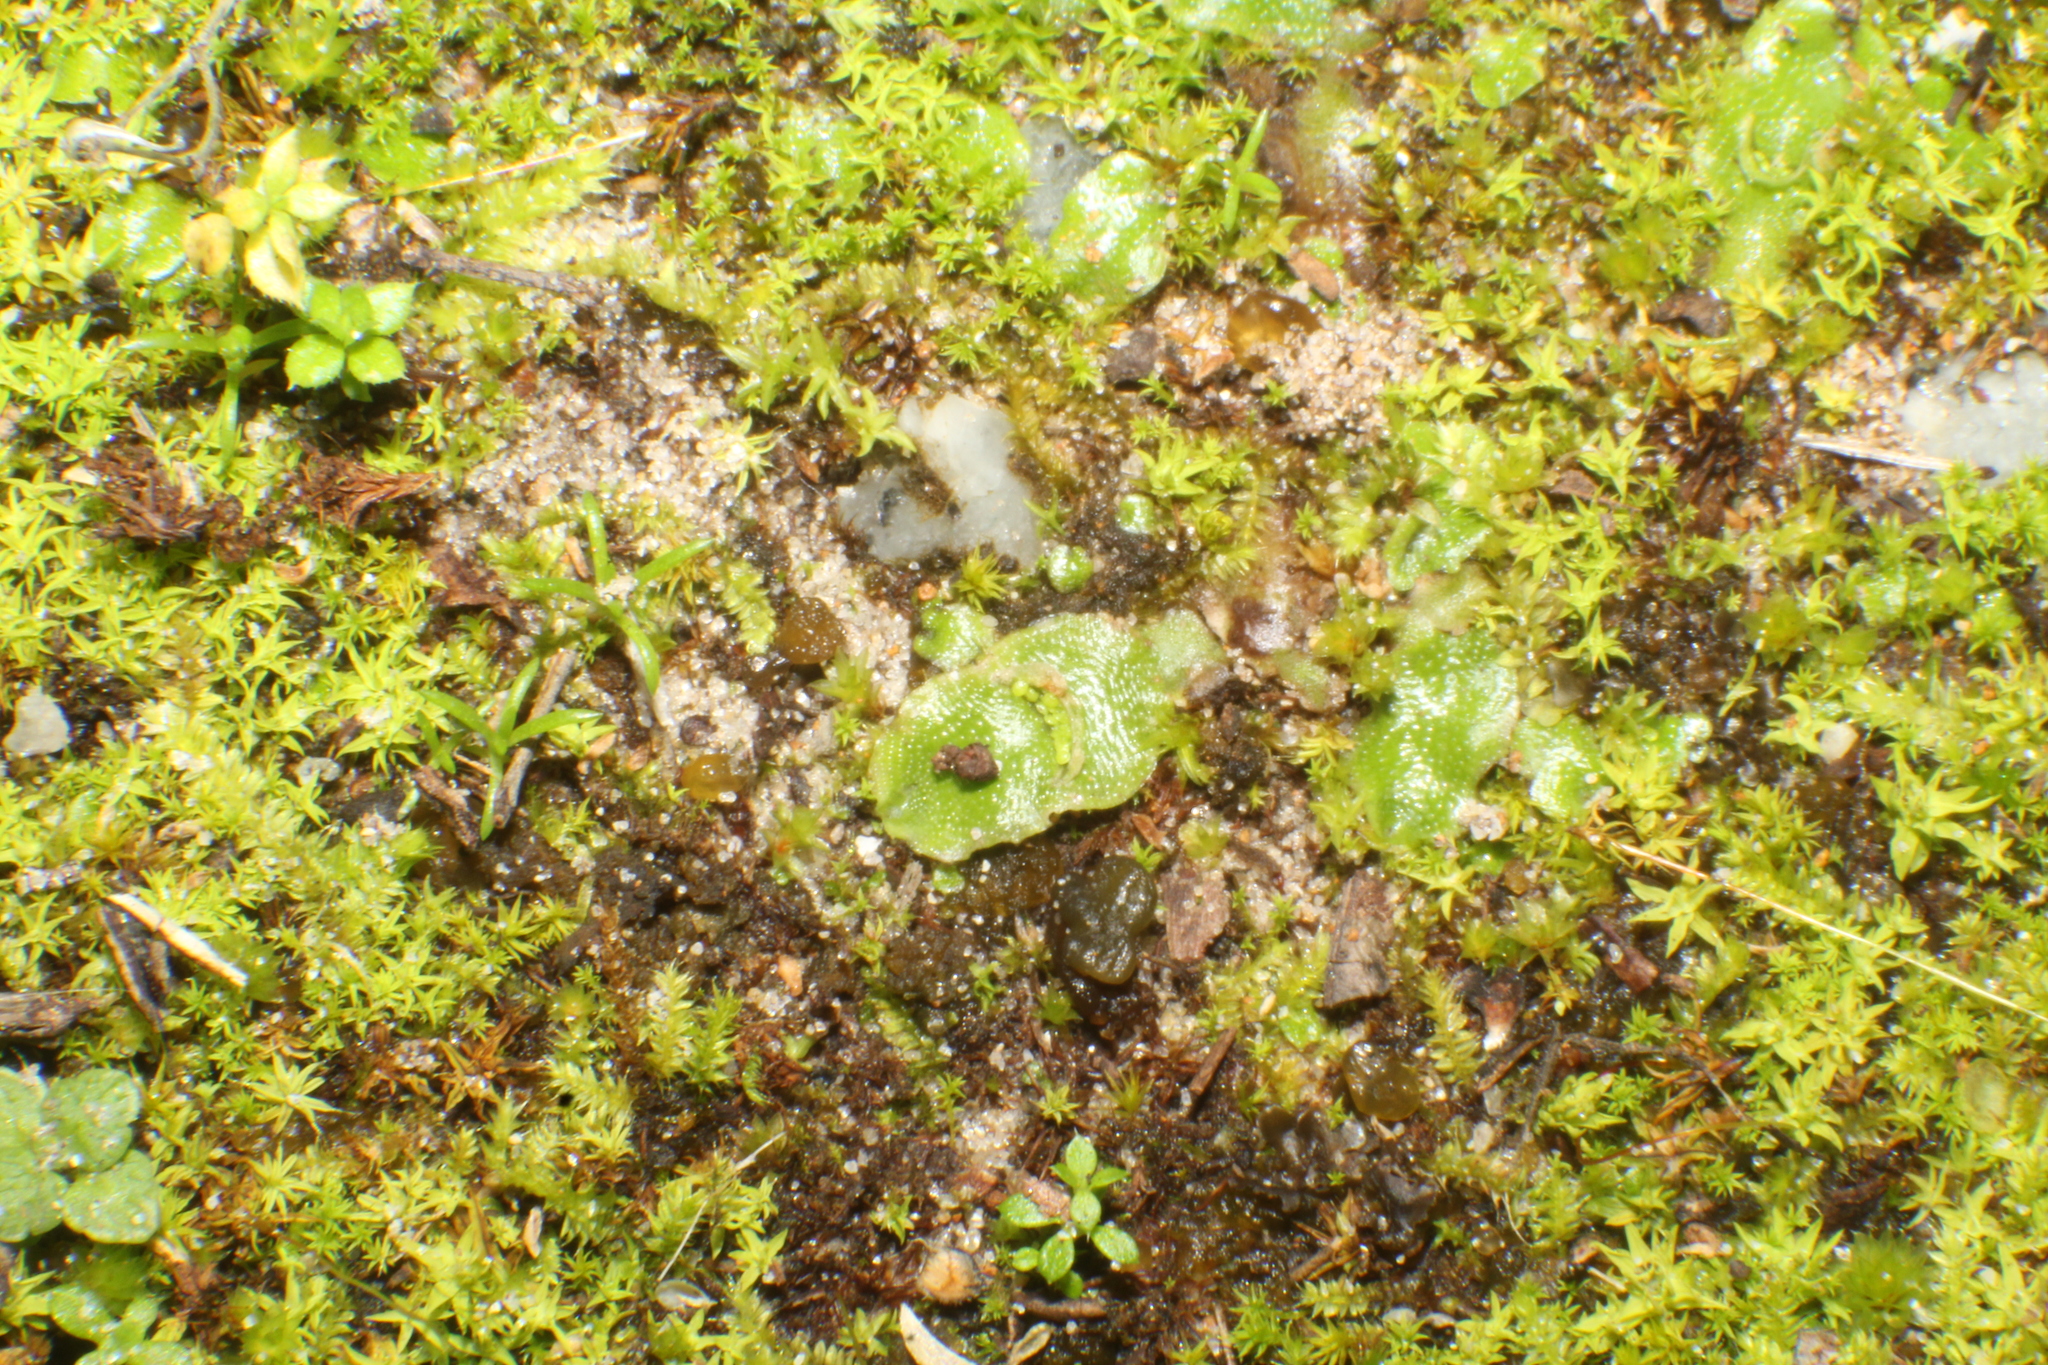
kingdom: Plantae
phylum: Marchantiophyta
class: Marchantiopsida
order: Lunulariales
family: Lunulariaceae
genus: Lunularia
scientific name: Lunularia cruciata
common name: Crescent-cup liverwort
